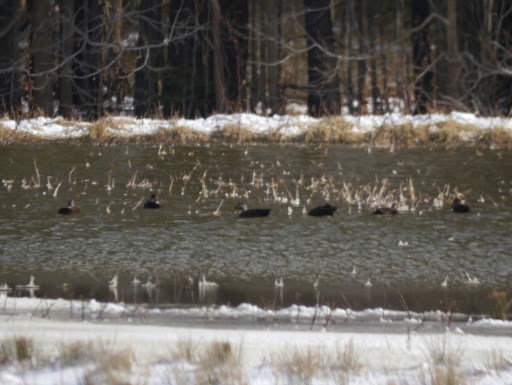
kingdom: Animalia
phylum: Chordata
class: Aves
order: Anseriformes
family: Anatidae
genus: Anas
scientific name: Anas rubripes
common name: American black duck
